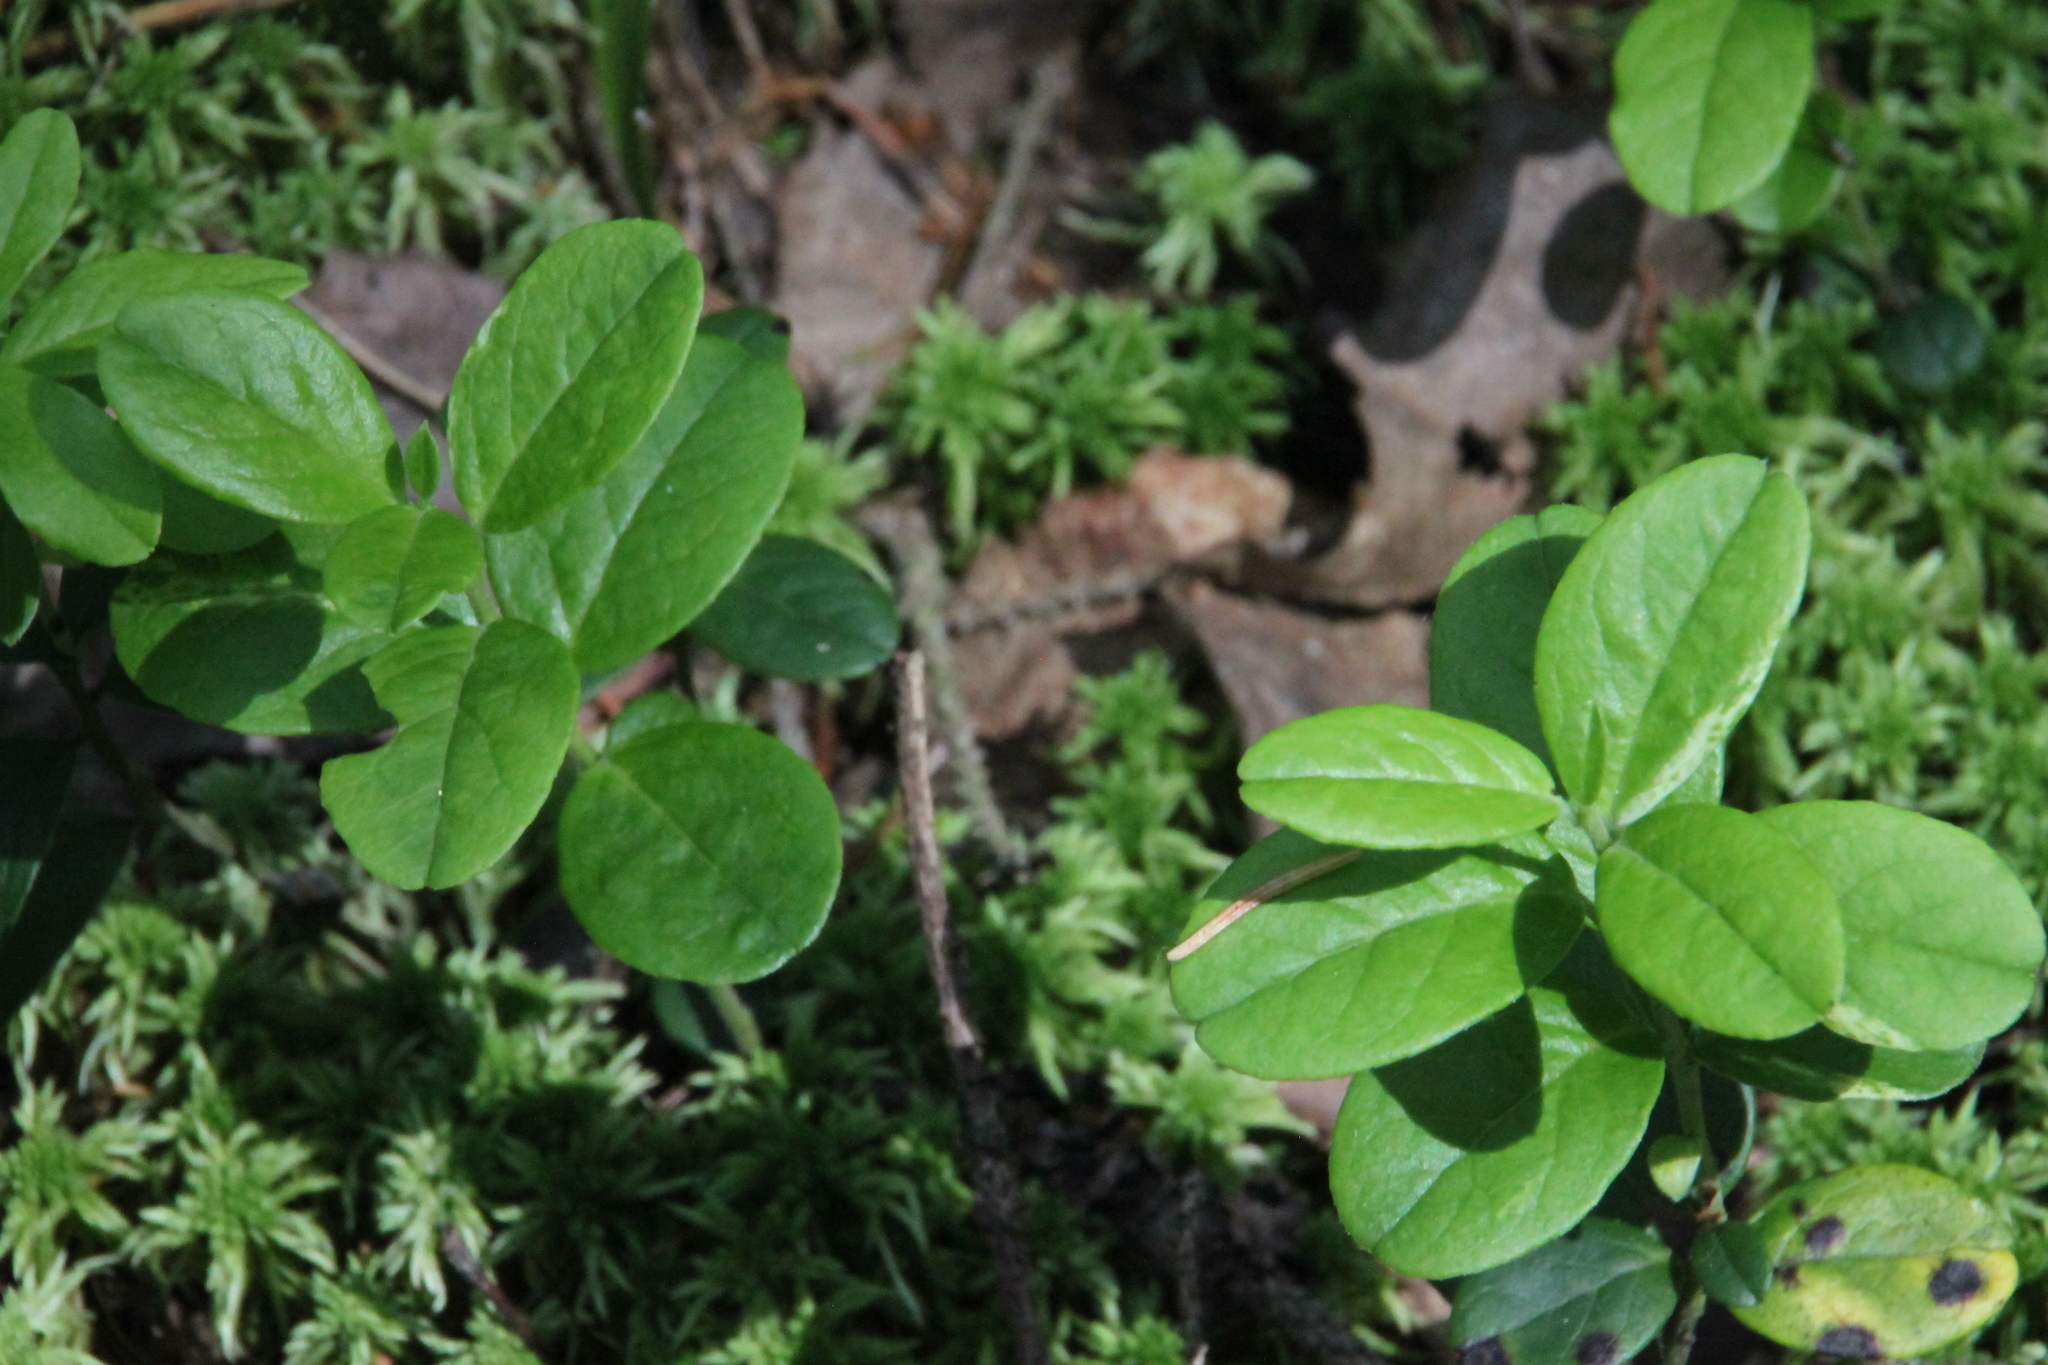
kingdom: Plantae
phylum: Tracheophyta
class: Magnoliopsida
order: Ericales
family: Ericaceae
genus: Vaccinium
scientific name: Vaccinium vitis-idaea
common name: Cowberry
